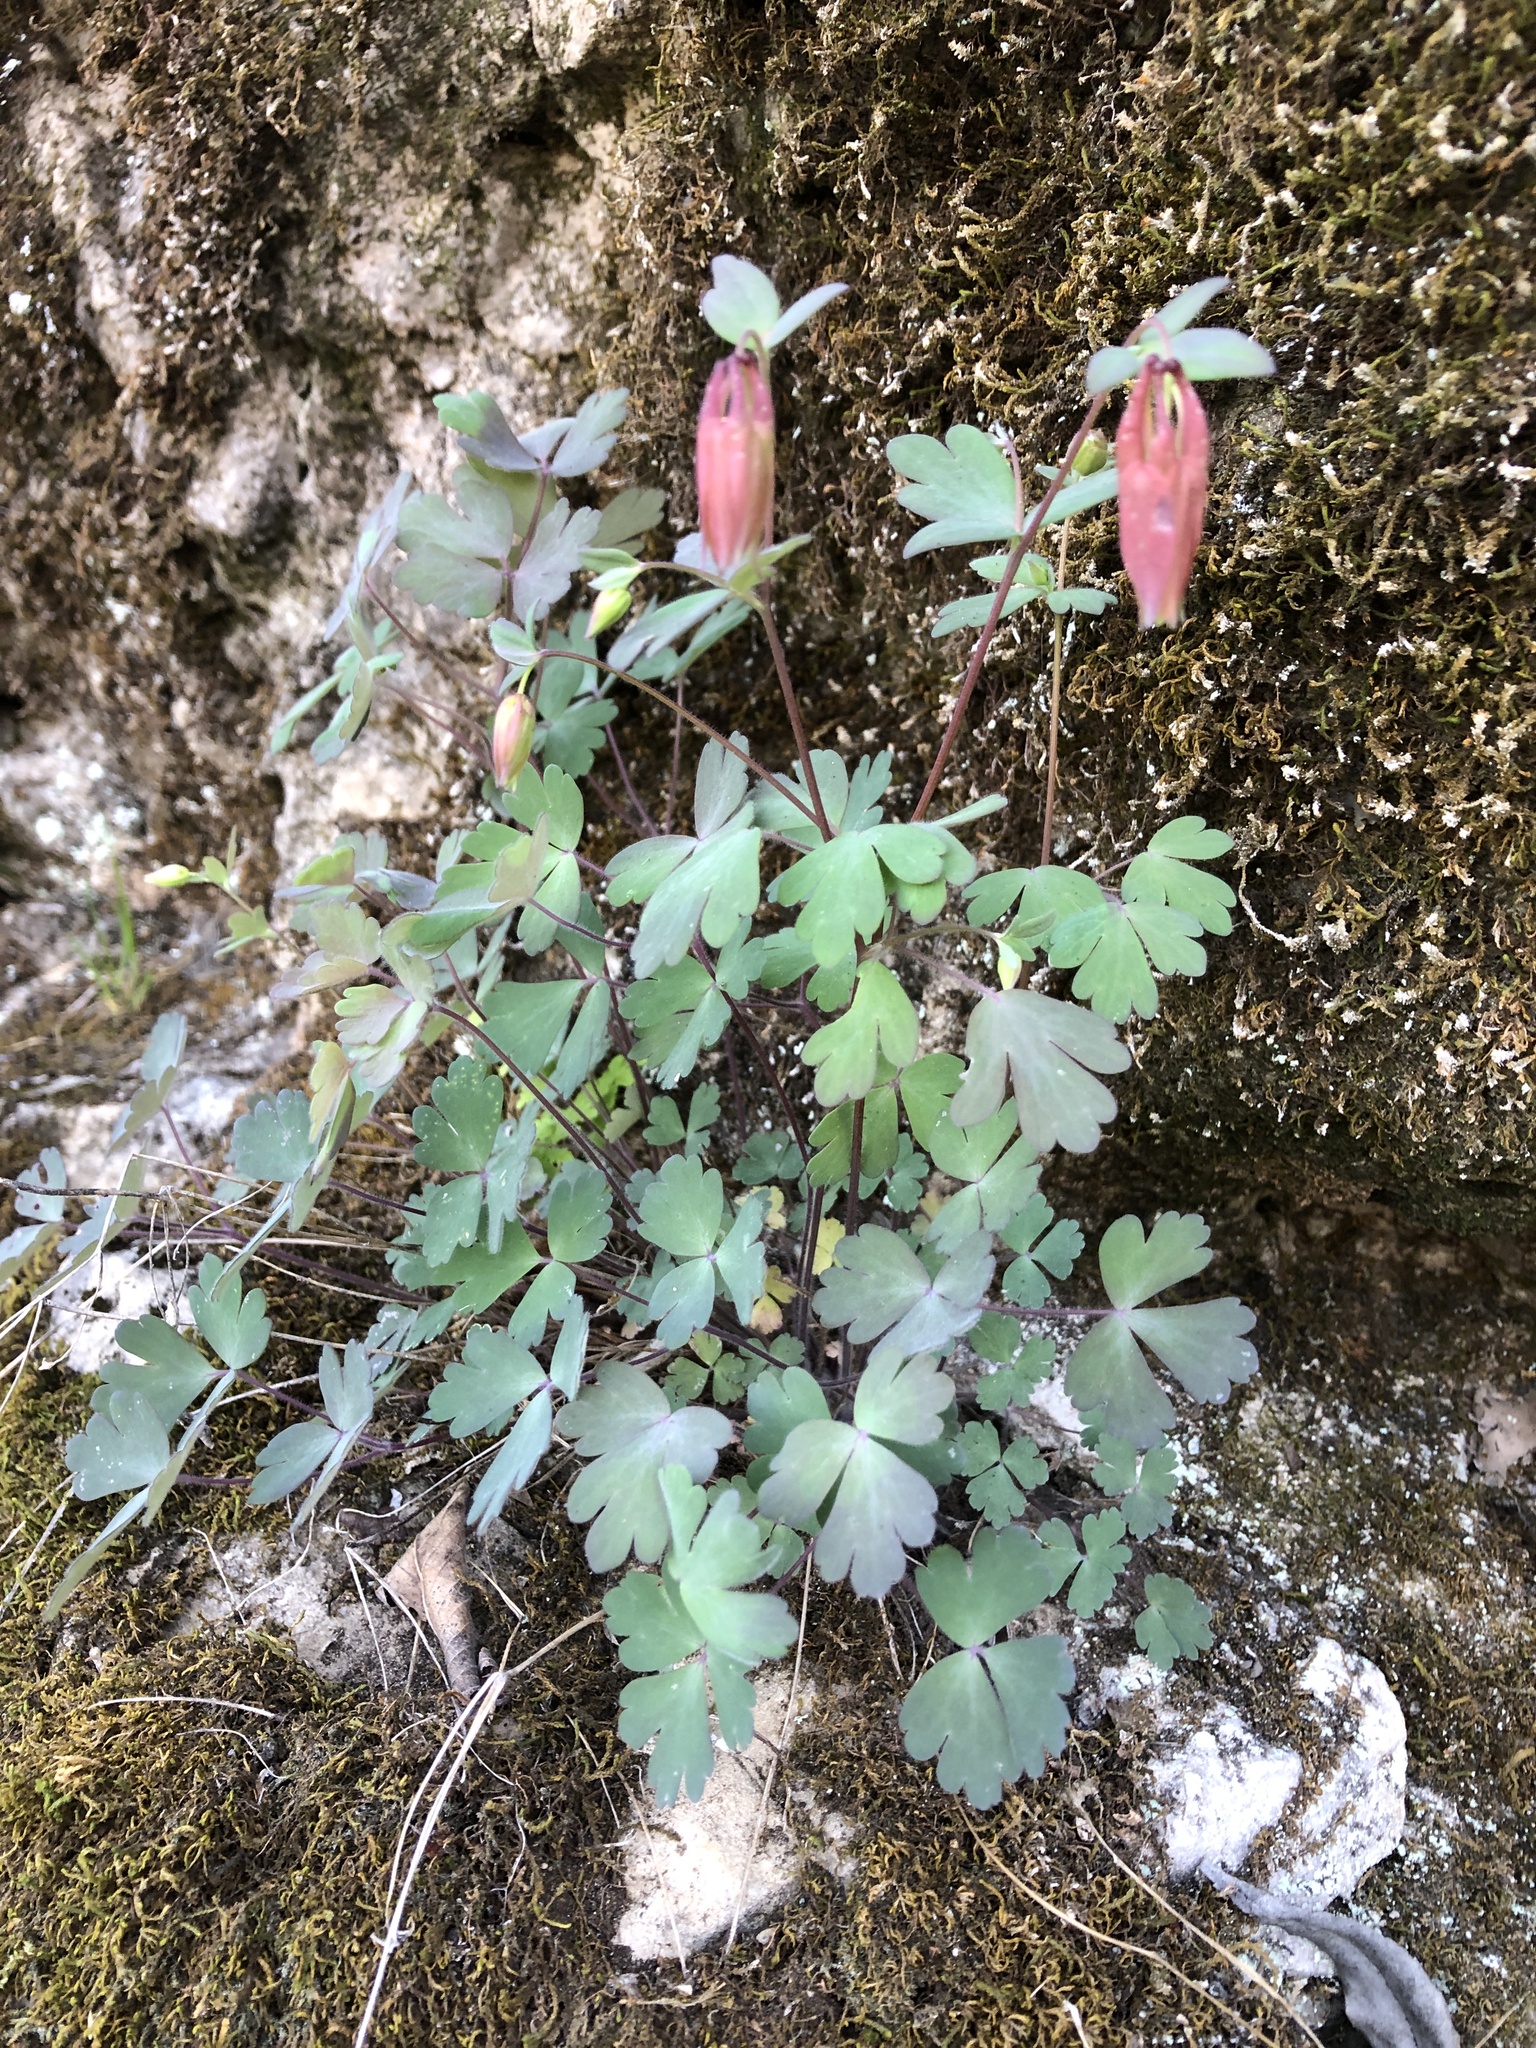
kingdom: Plantae
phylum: Tracheophyta
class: Magnoliopsida
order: Ranunculales
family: Ranunculaceae
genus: Aquilegia
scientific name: Aquilegia canadensis
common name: American columbine
